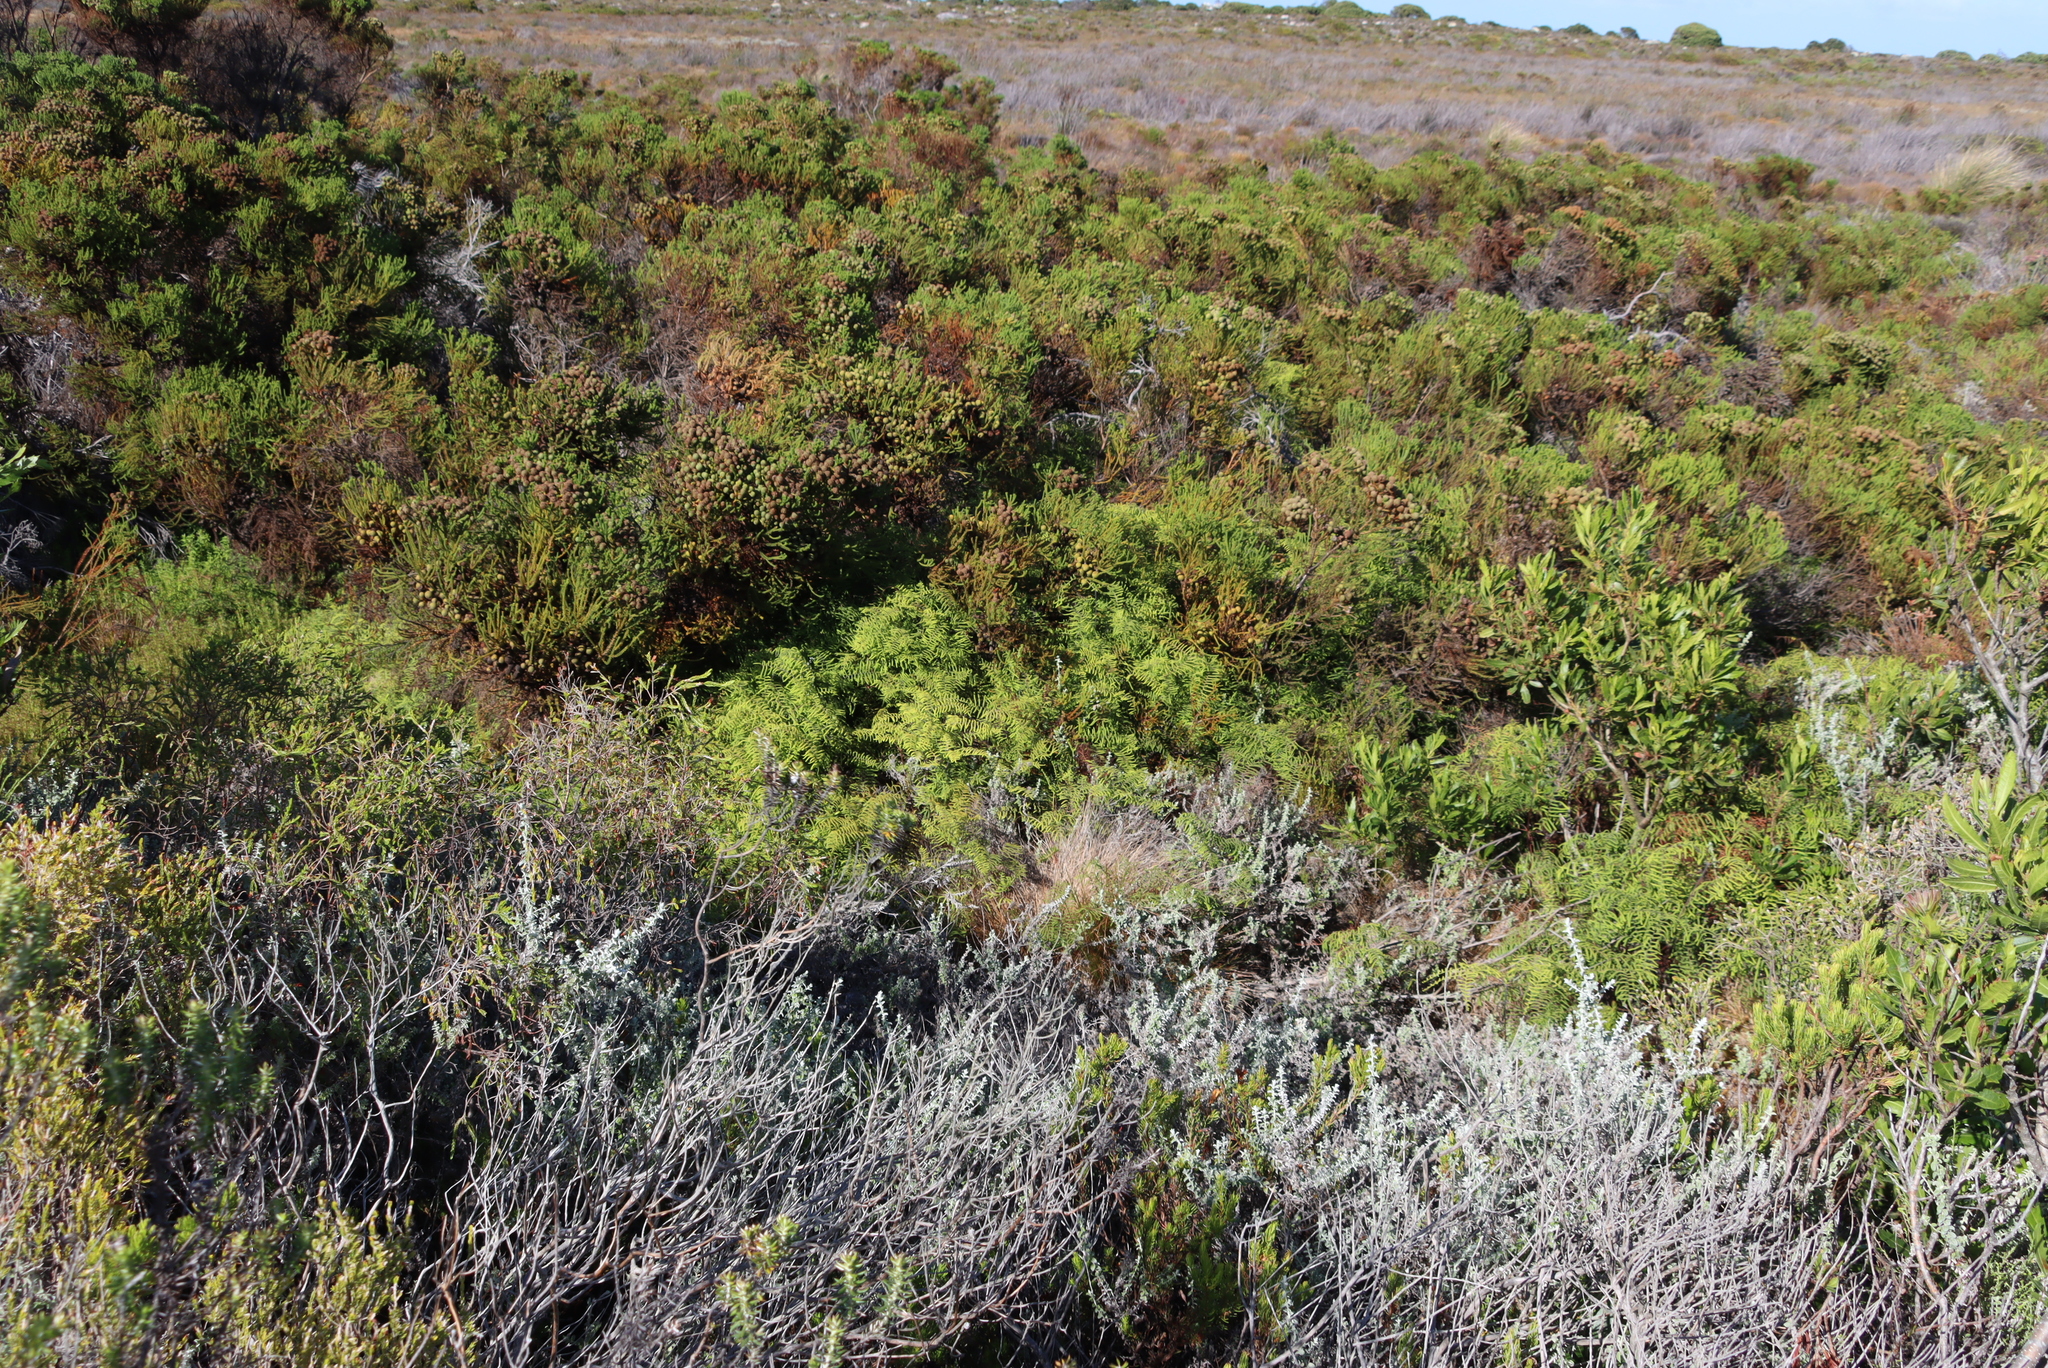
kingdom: Plantae
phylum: Tracheophyta
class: Polypodiopsida
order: Gleicheniales
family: Gleicheniaceae
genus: Gleichenia
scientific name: Gleichenia polypodioides
